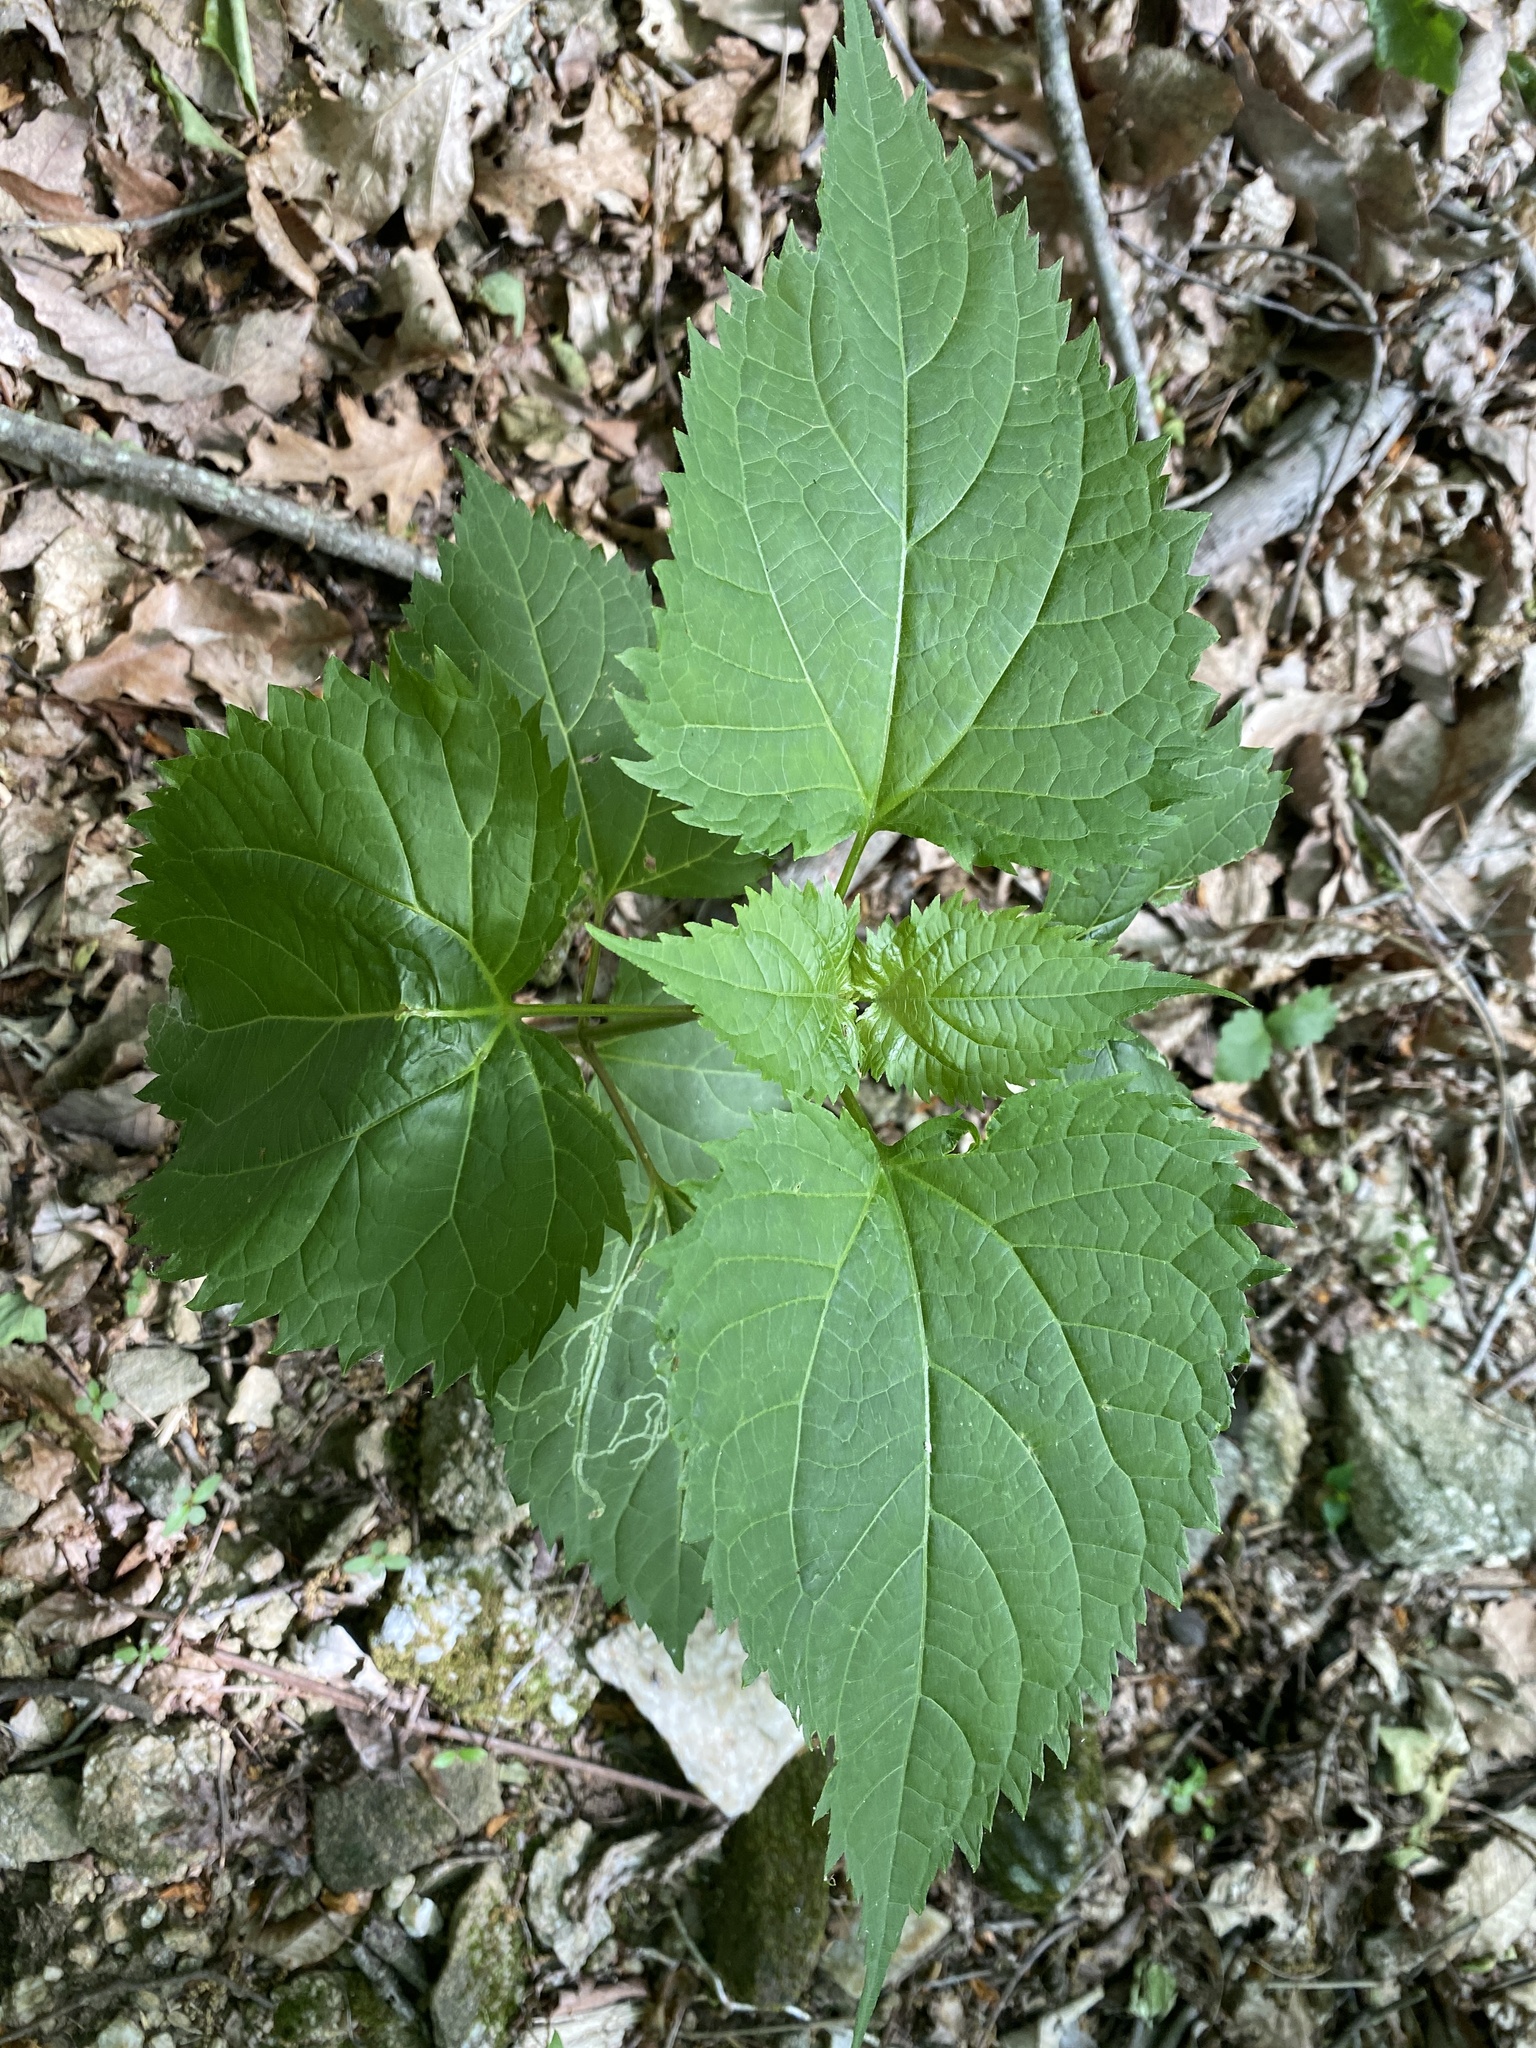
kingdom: Plantae
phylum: Tracheophyta
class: Magnoliopsida
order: Asterales
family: Asteraceae
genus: Ageratina
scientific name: Ageratina altissima
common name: White snakeroot
